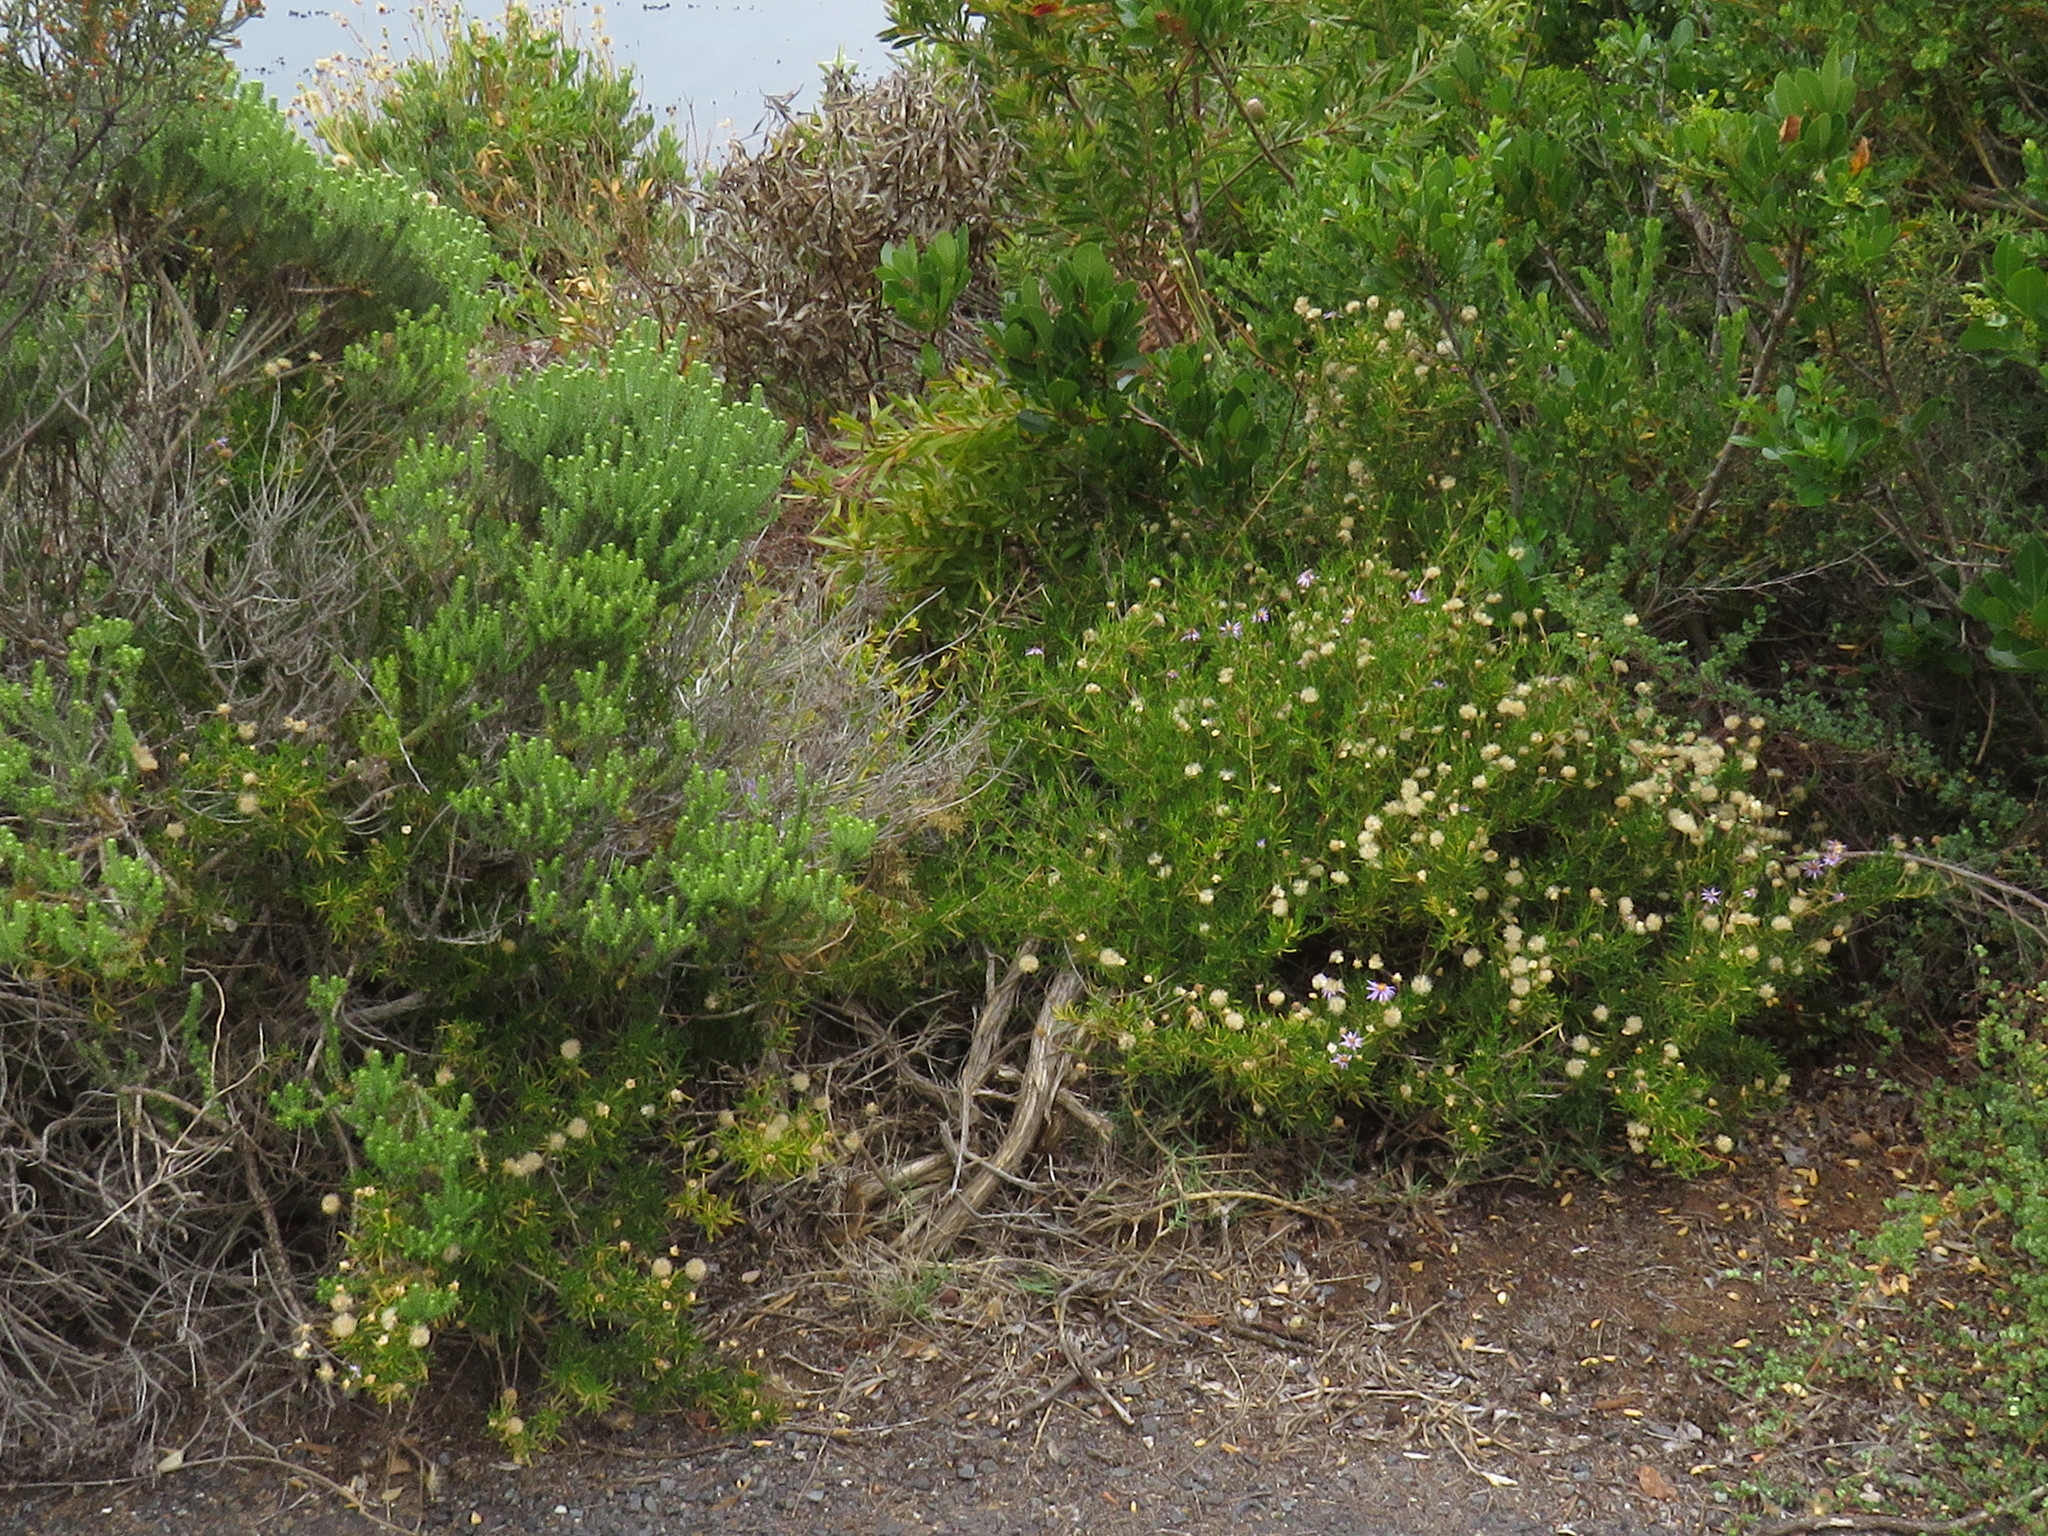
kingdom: Plantae
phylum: Tracheophyta
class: Magnoliopsida
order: Asterales
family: Asteraceae
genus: Felicia
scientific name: Felicia fruticosa
